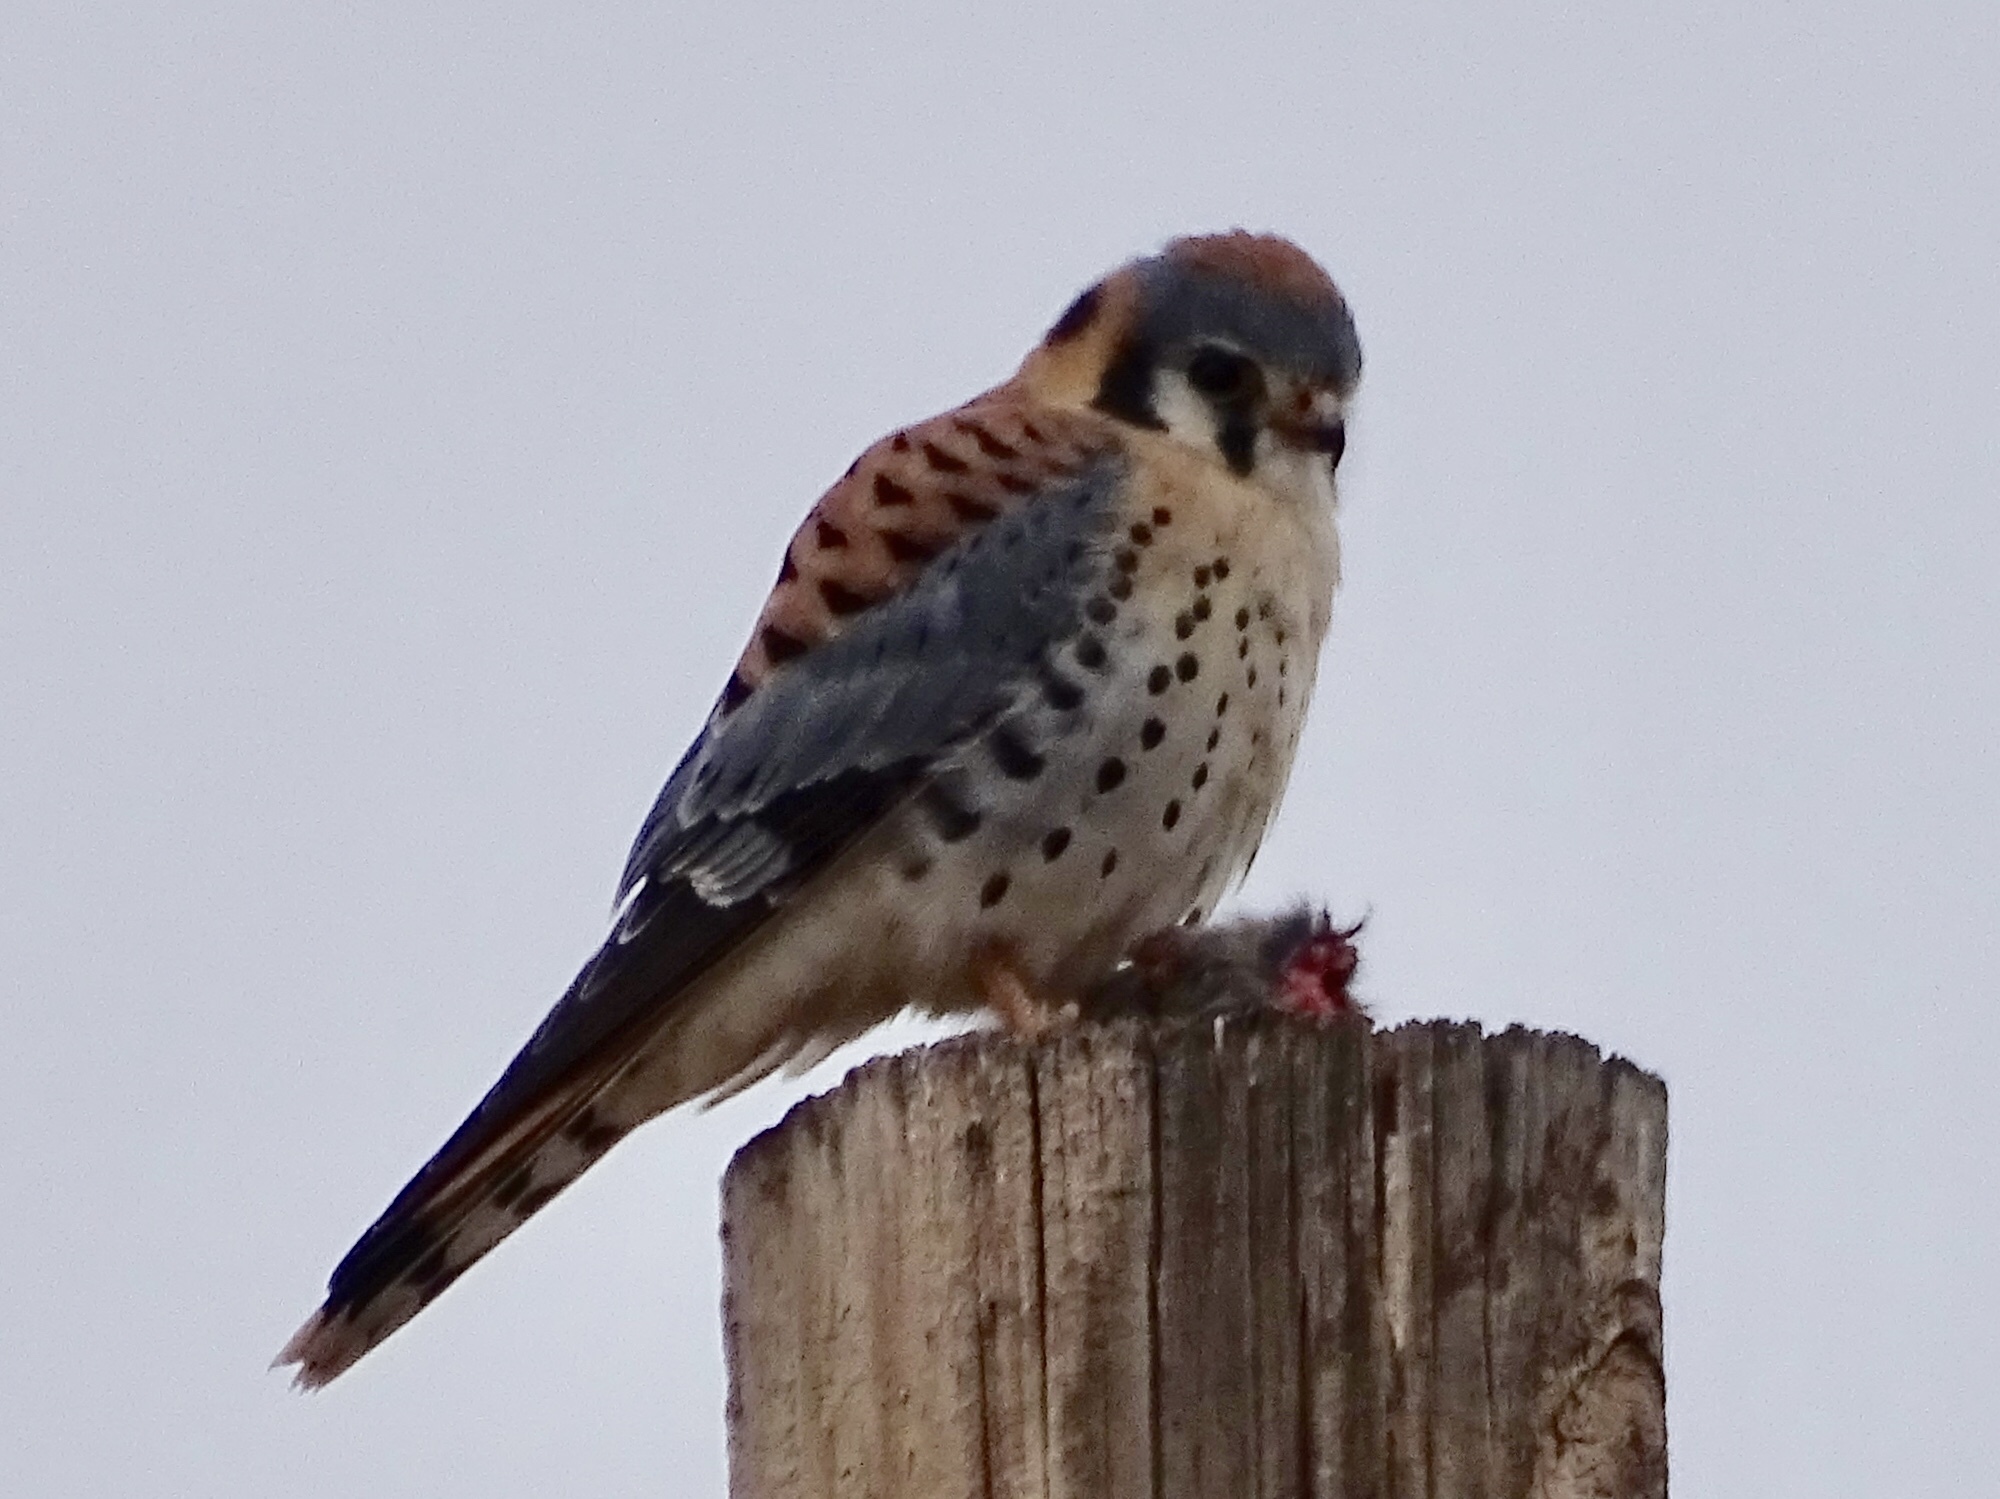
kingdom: Animalia
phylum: Chordata
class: Aves
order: Falconiformes
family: Falconidae
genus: Falco
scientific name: Falco sparverius
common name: American kestrel
